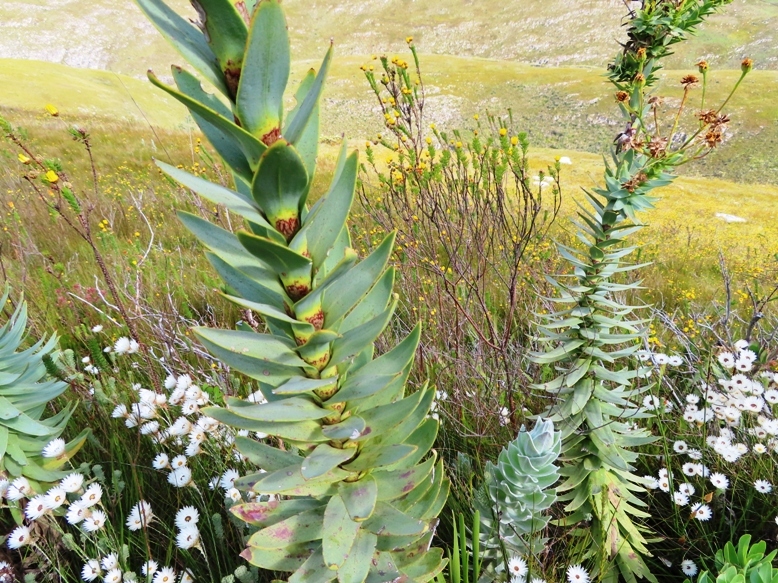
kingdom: Plantae
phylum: Tracheophyta
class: Magnoliopsida
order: Asterales
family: Asteraceae
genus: Osteospermum
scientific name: Osteospermum corymbosum
